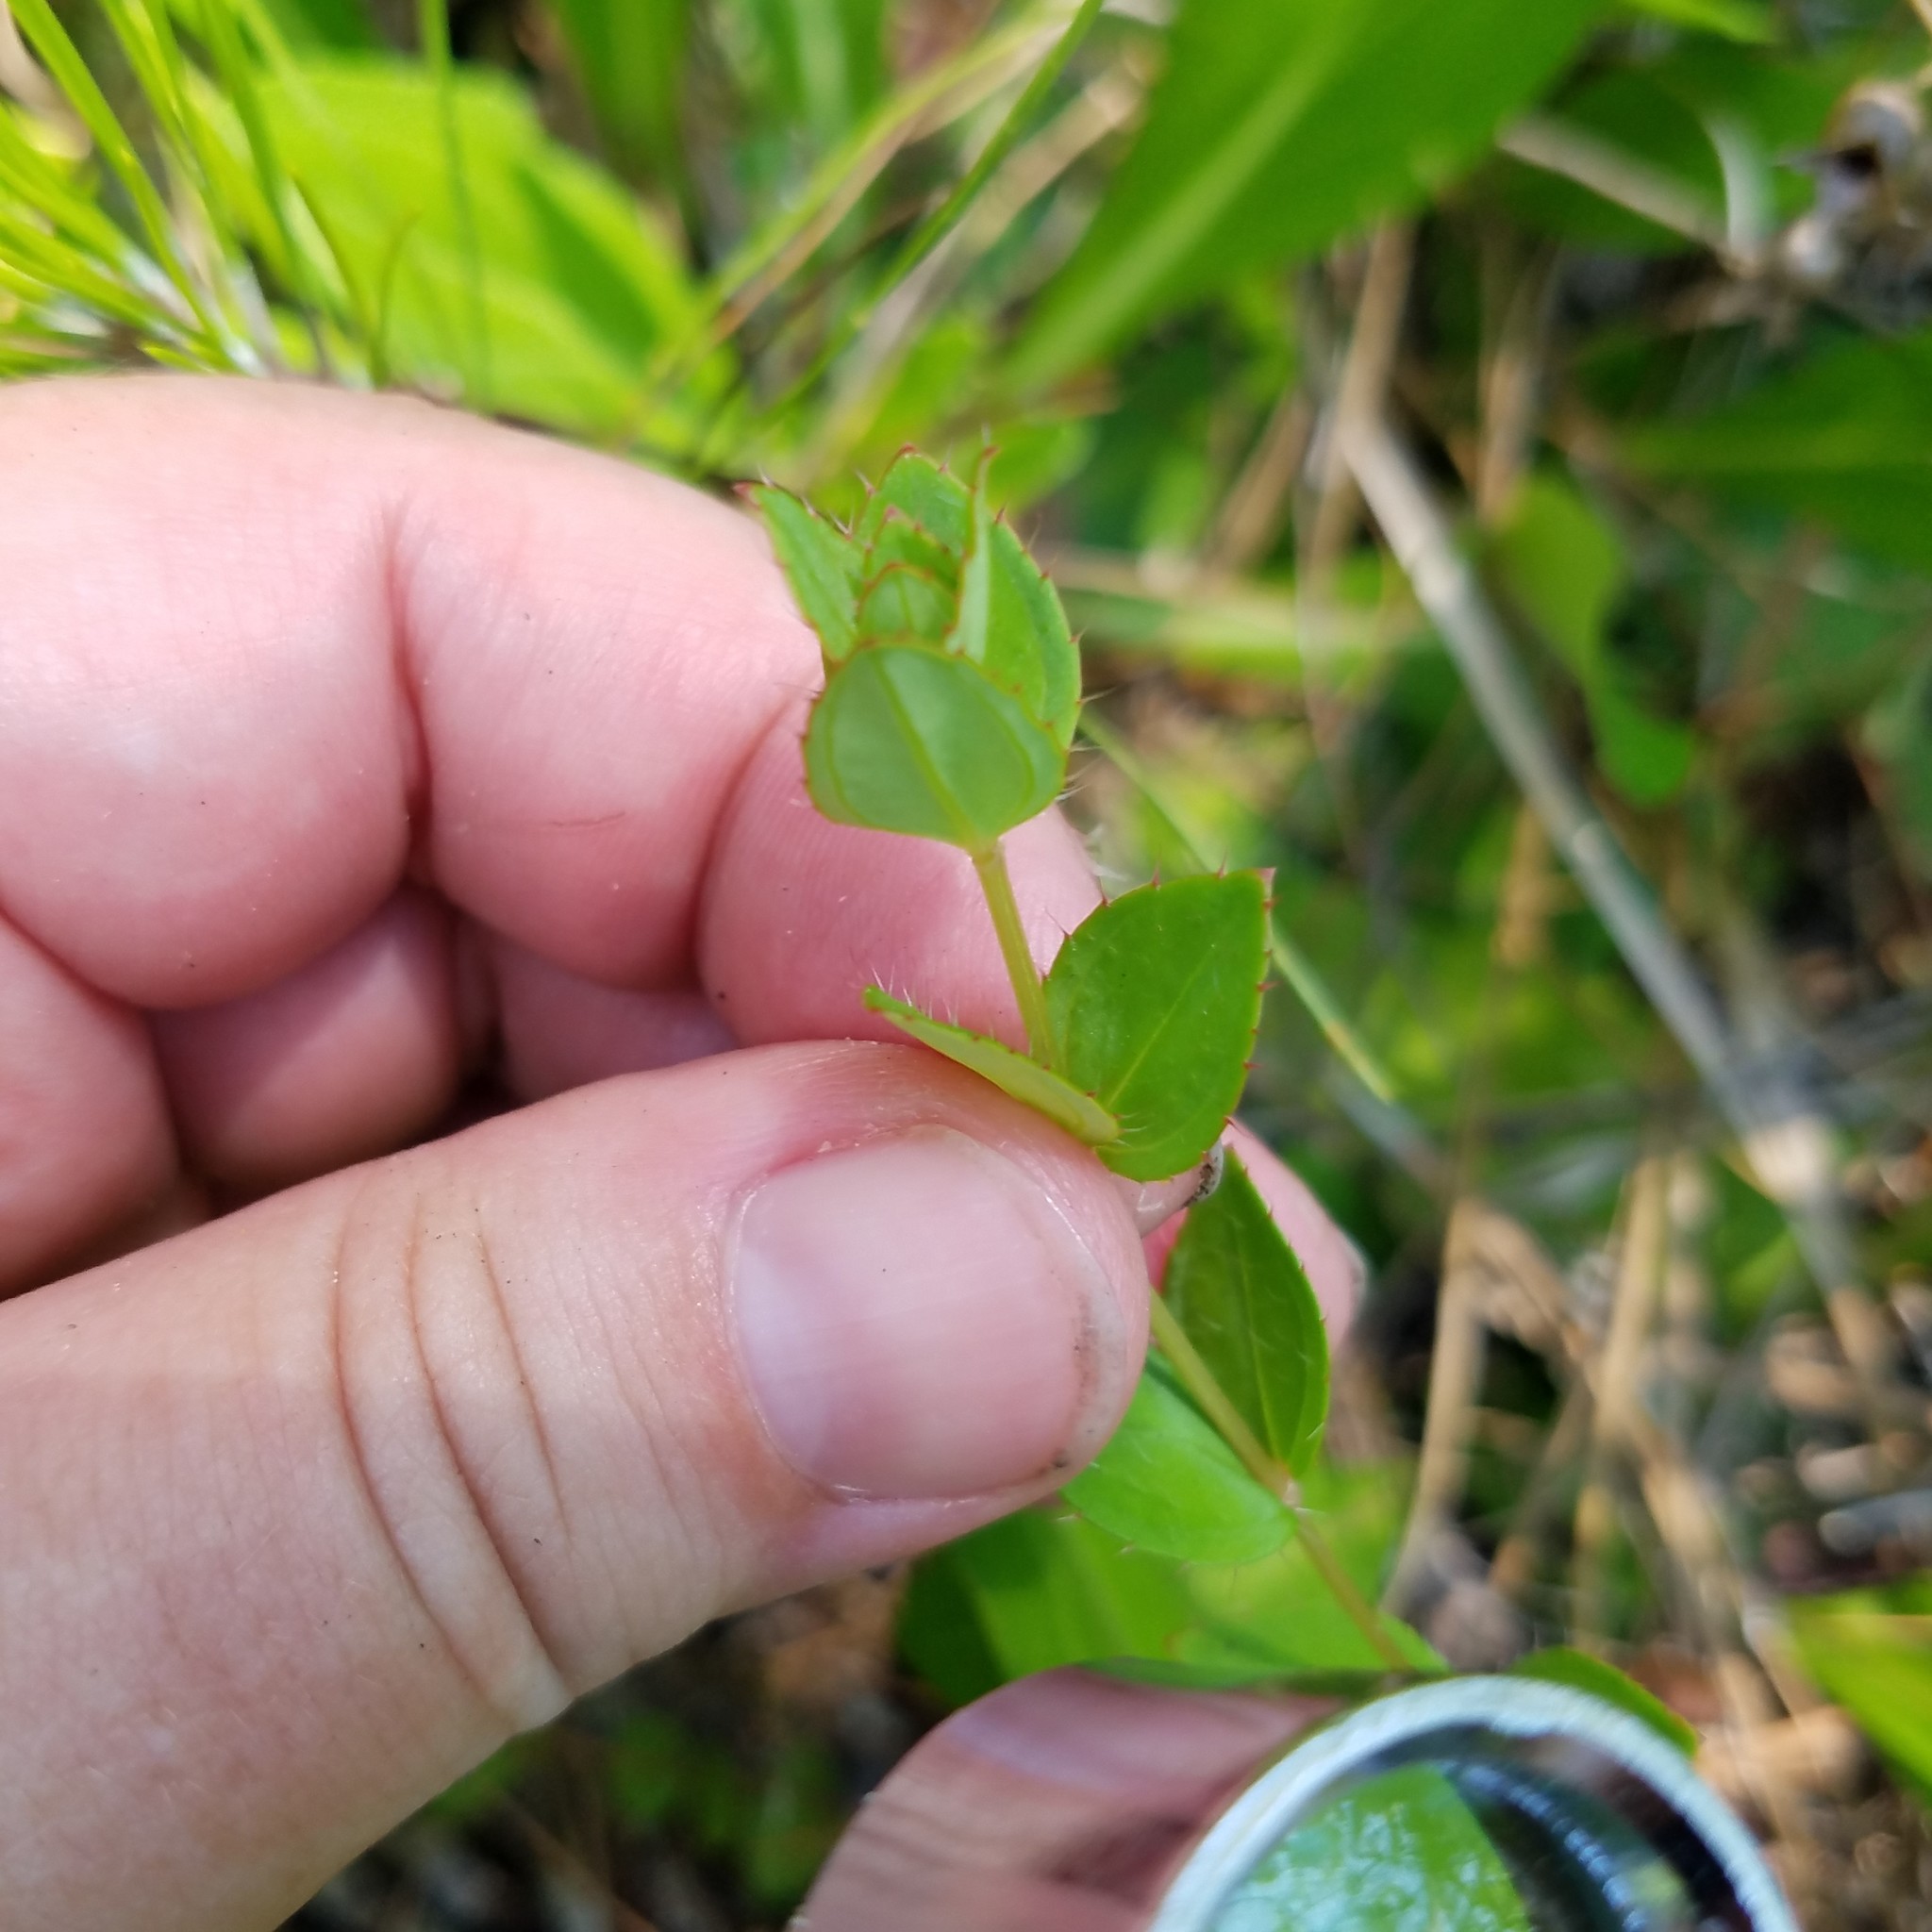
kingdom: Plantae
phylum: Tracheophyta
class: Magnoliopsida
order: Myrtales
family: Melastomataceae
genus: Rhexia
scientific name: Rhexia petiolata
